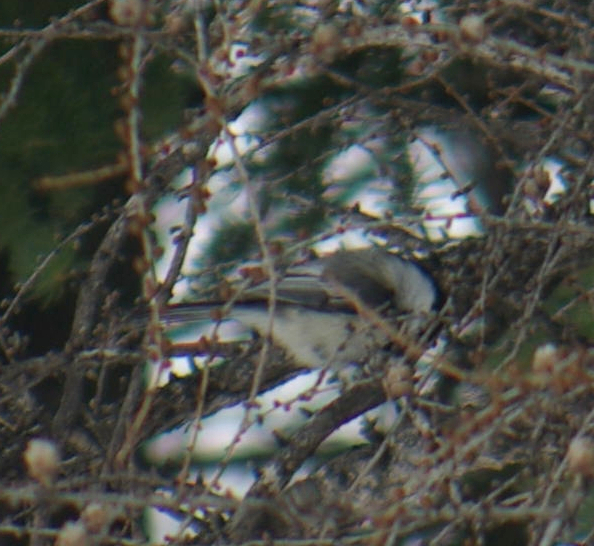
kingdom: Animalia
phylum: Chordata
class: Aves
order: Passeriformes
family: Paridae
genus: Poecile
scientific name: Poecile atricapillus
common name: Black-capped chickadee
